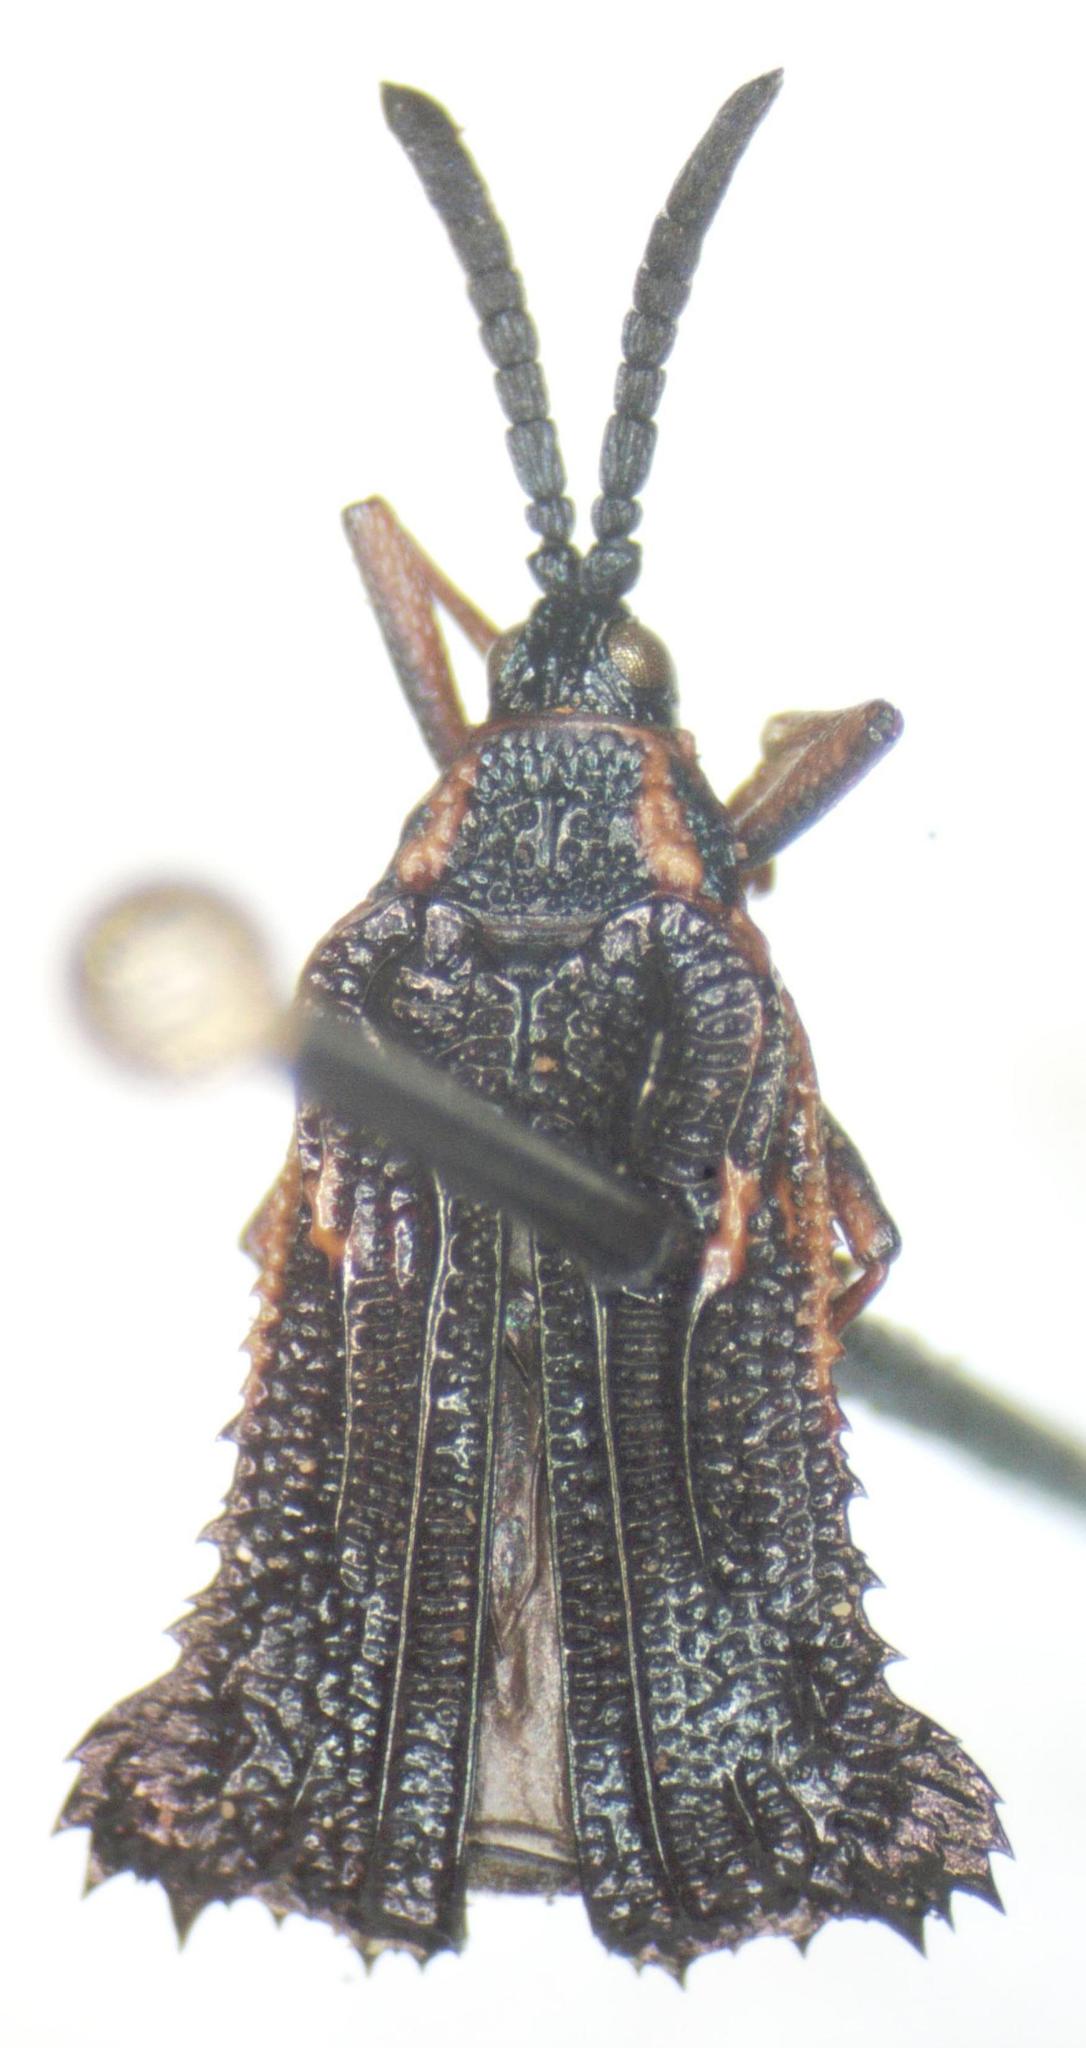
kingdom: Animalia
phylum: Arthropoda
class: Insecta
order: Coleoptera
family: Chrysomelidae
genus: Euprionota
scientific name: Euprionota aterrima
